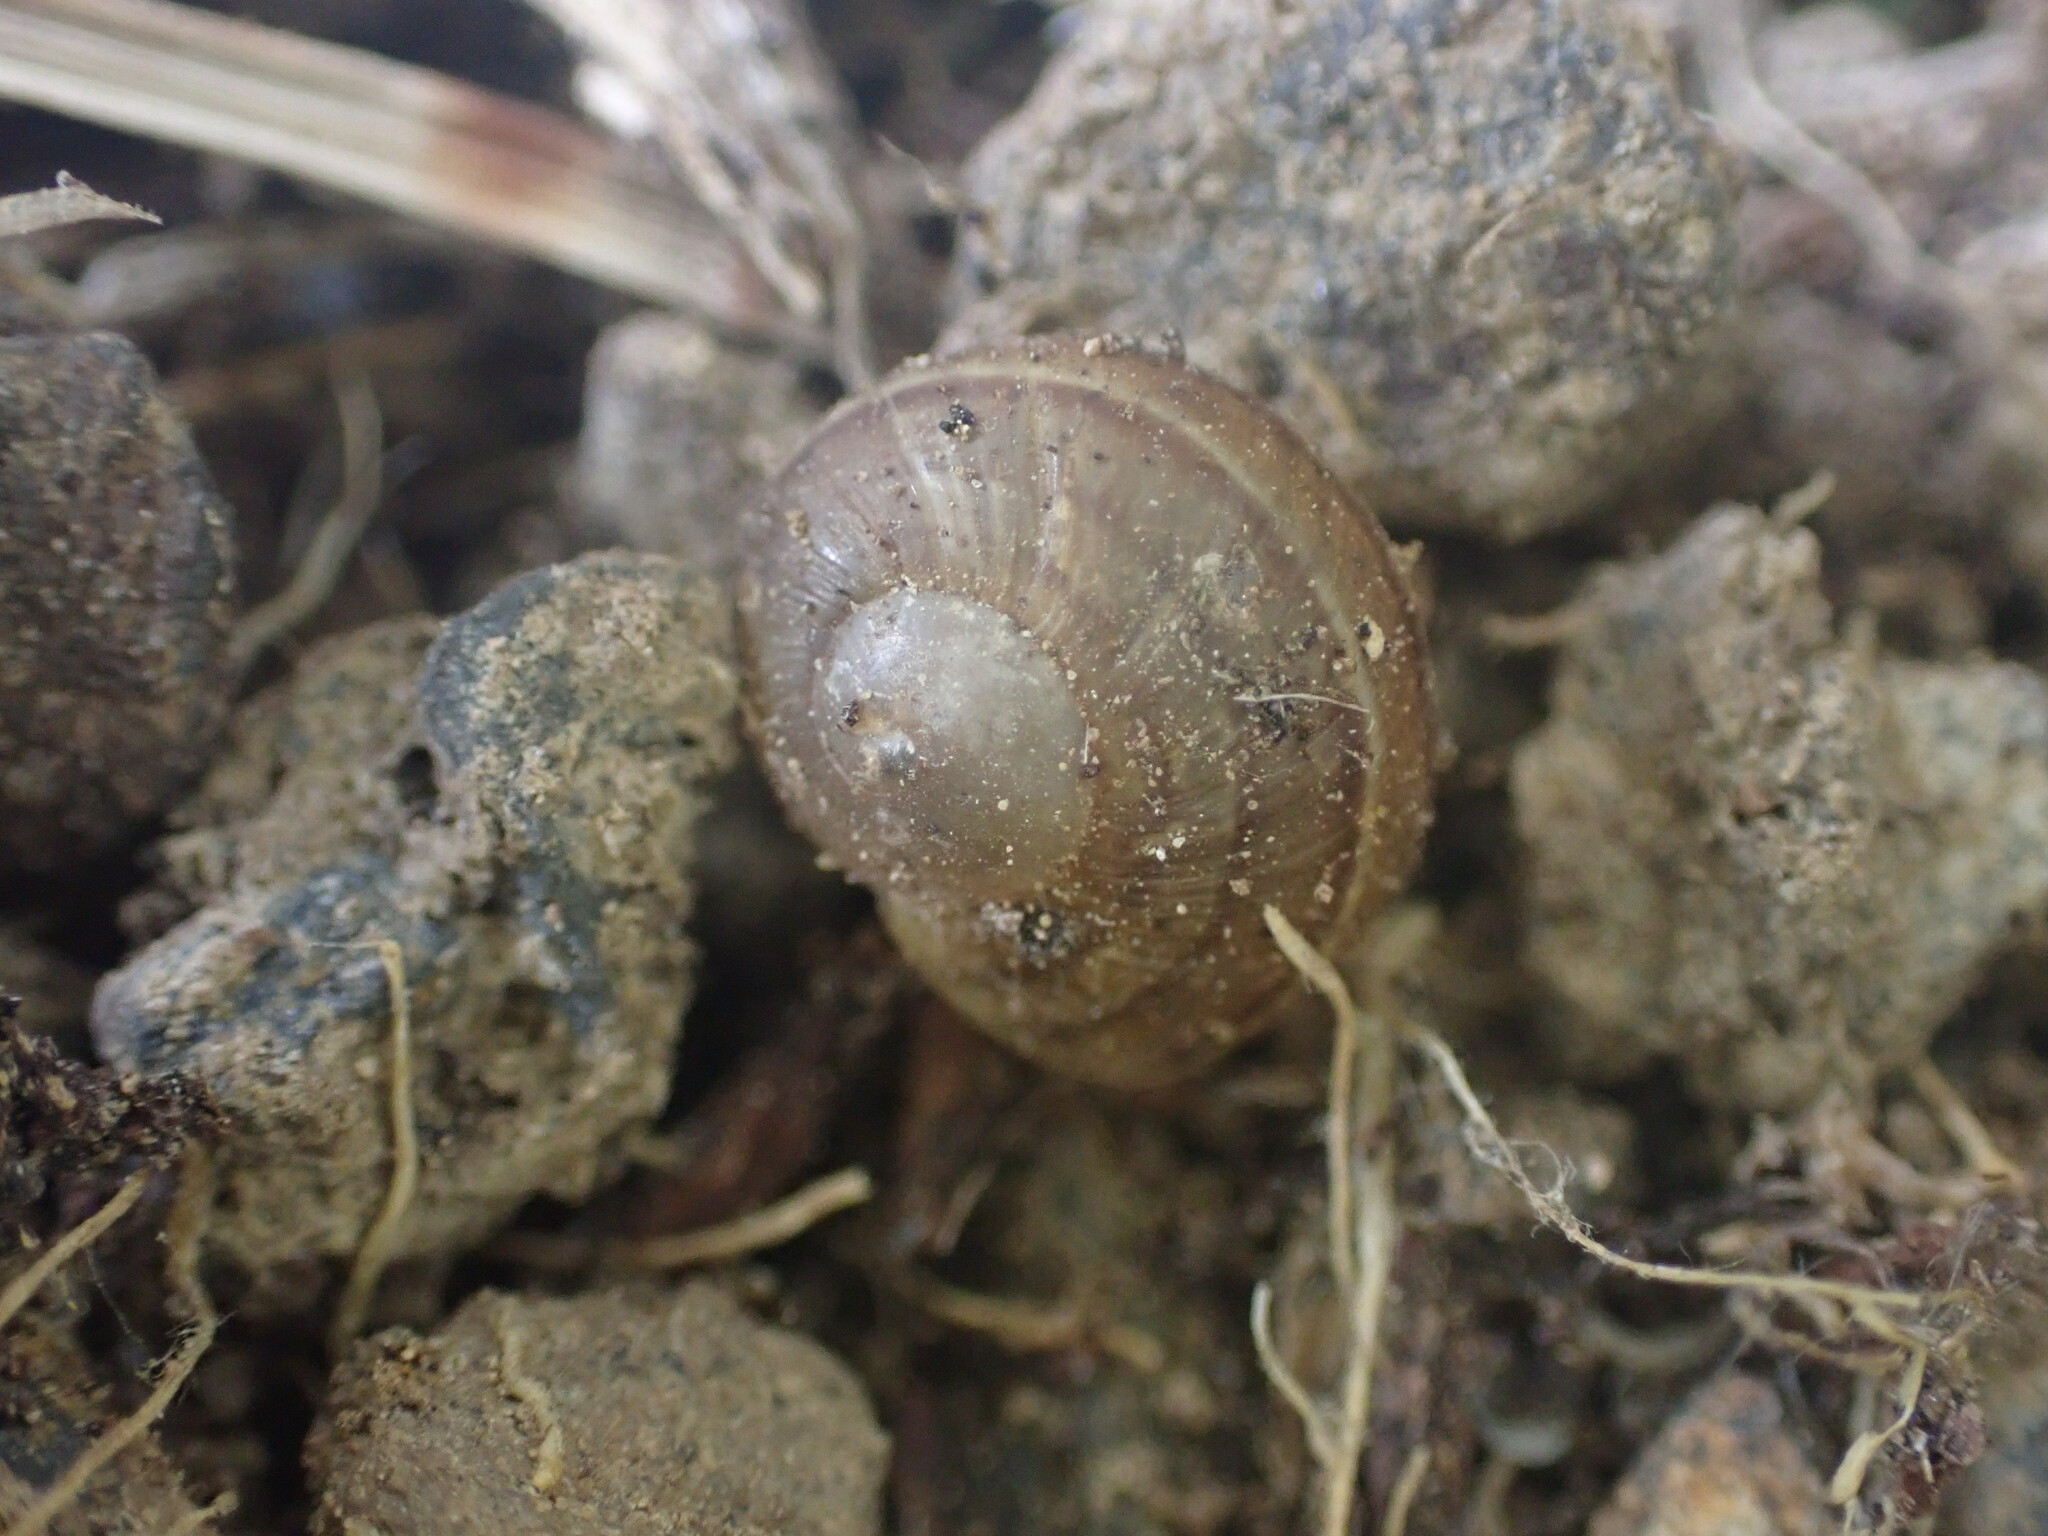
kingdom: Animalia
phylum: Mollusca
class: Gastropoda
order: Stylommatophora
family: Helicidae
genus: Cornu
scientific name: Cornu aspersum
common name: Brown garden snail
